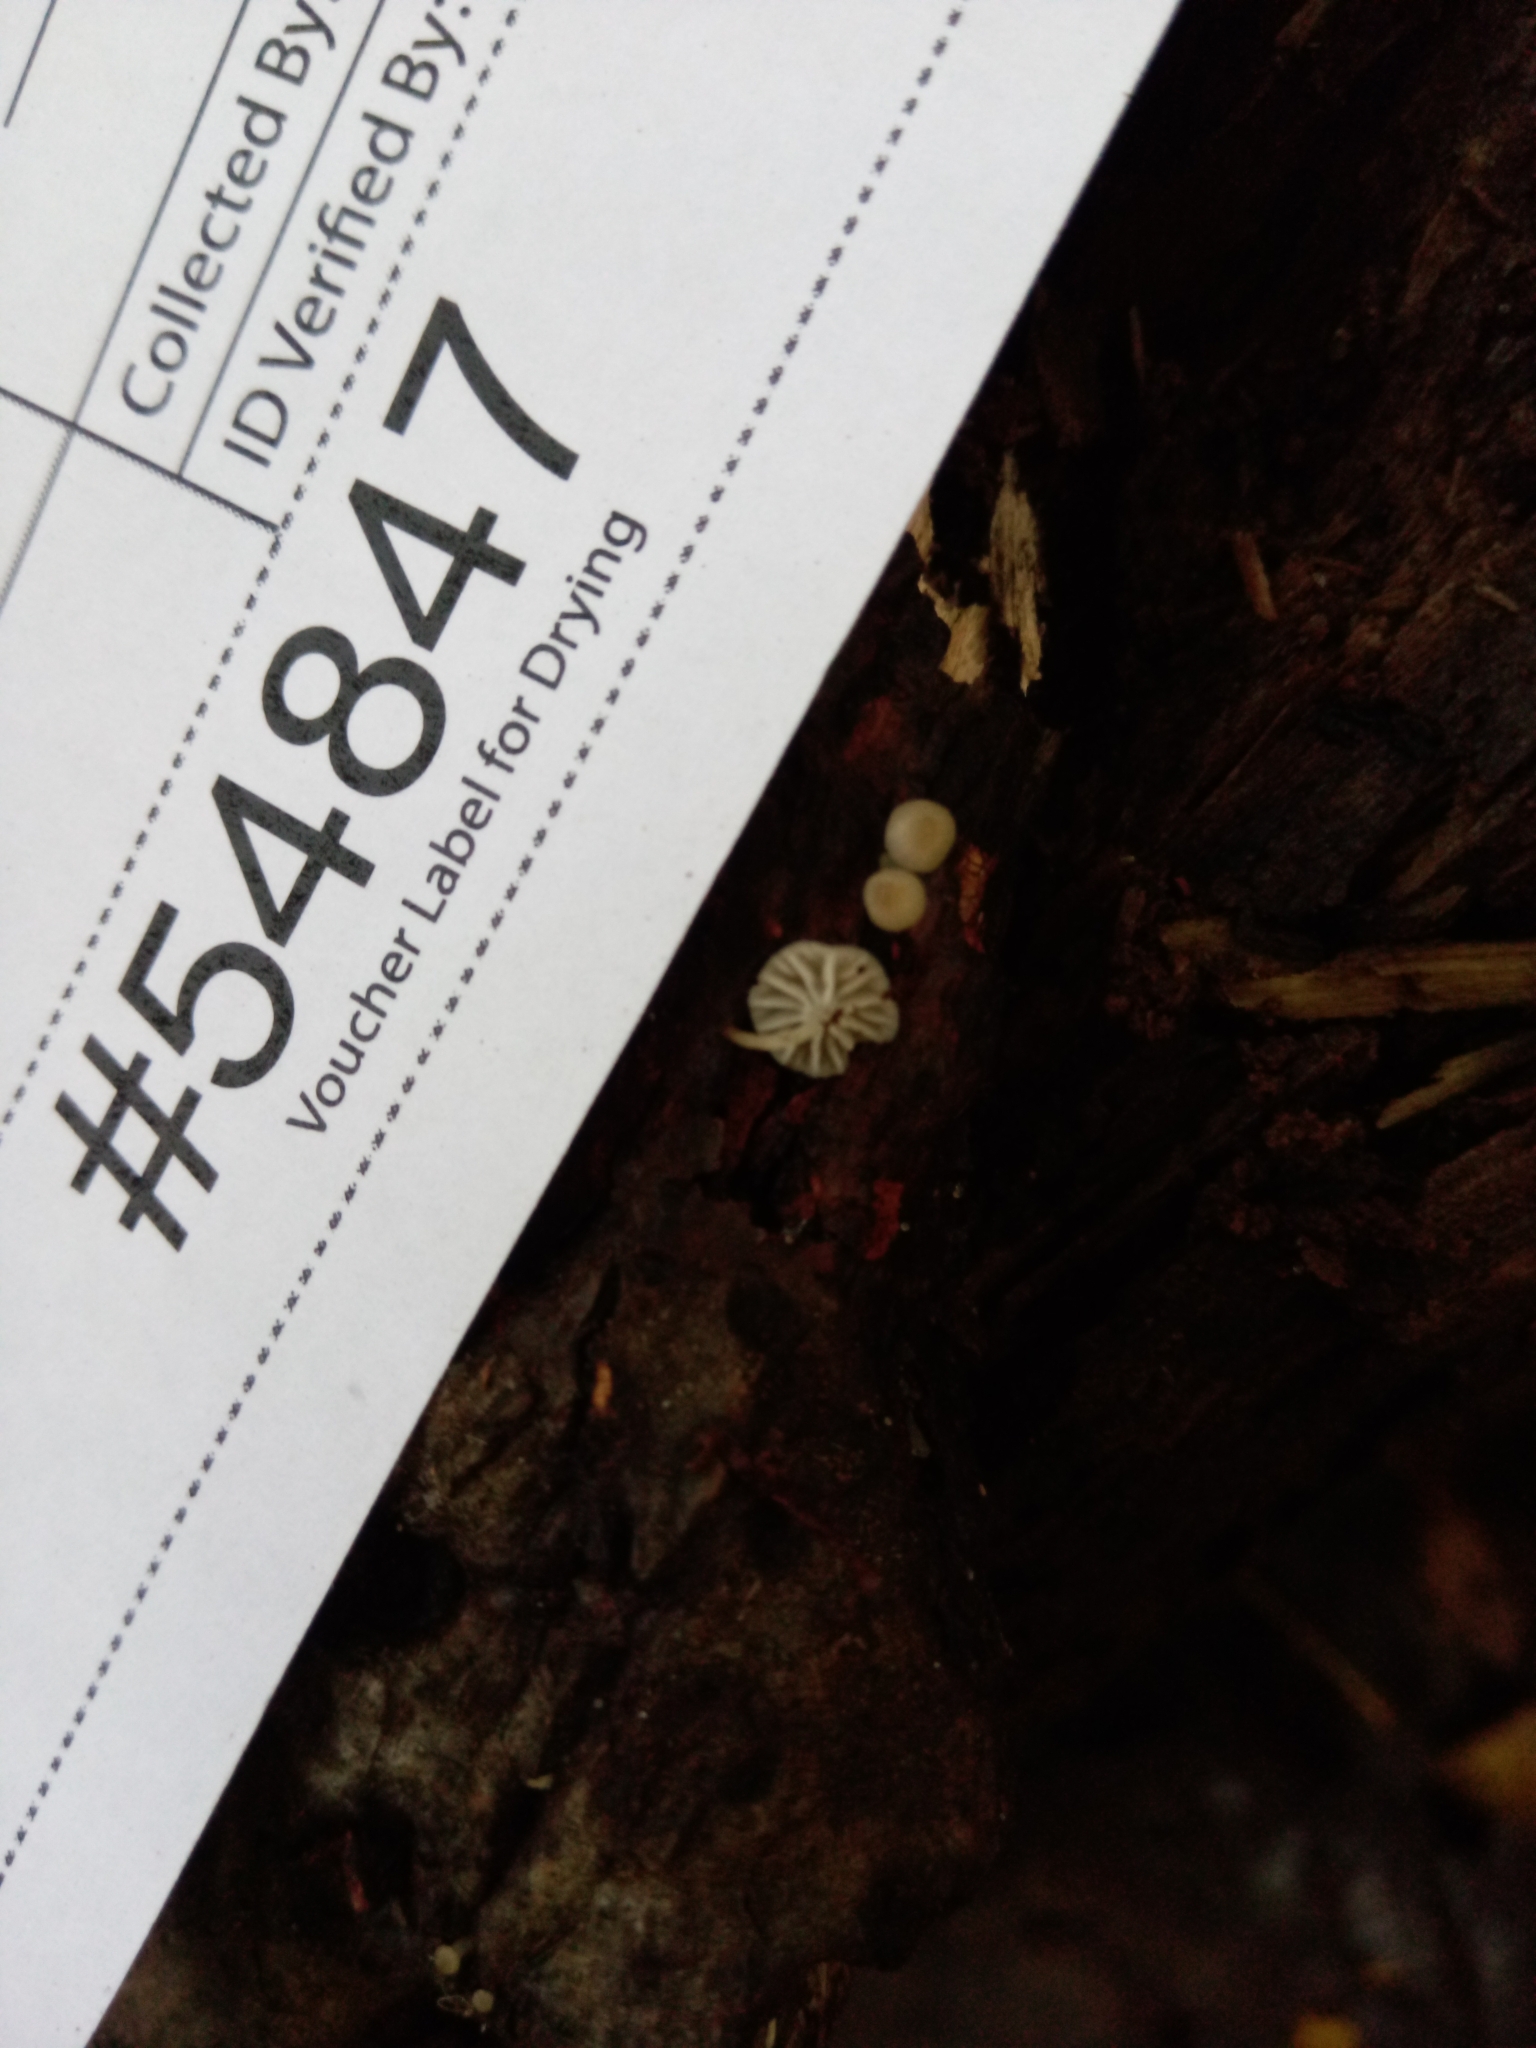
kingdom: Fungi
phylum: Basidiomycota
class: Agaricomycetes
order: Agaricales
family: Porotheleaceae
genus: Phloeomana
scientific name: Phloeomana speirea
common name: Bark bonnet
